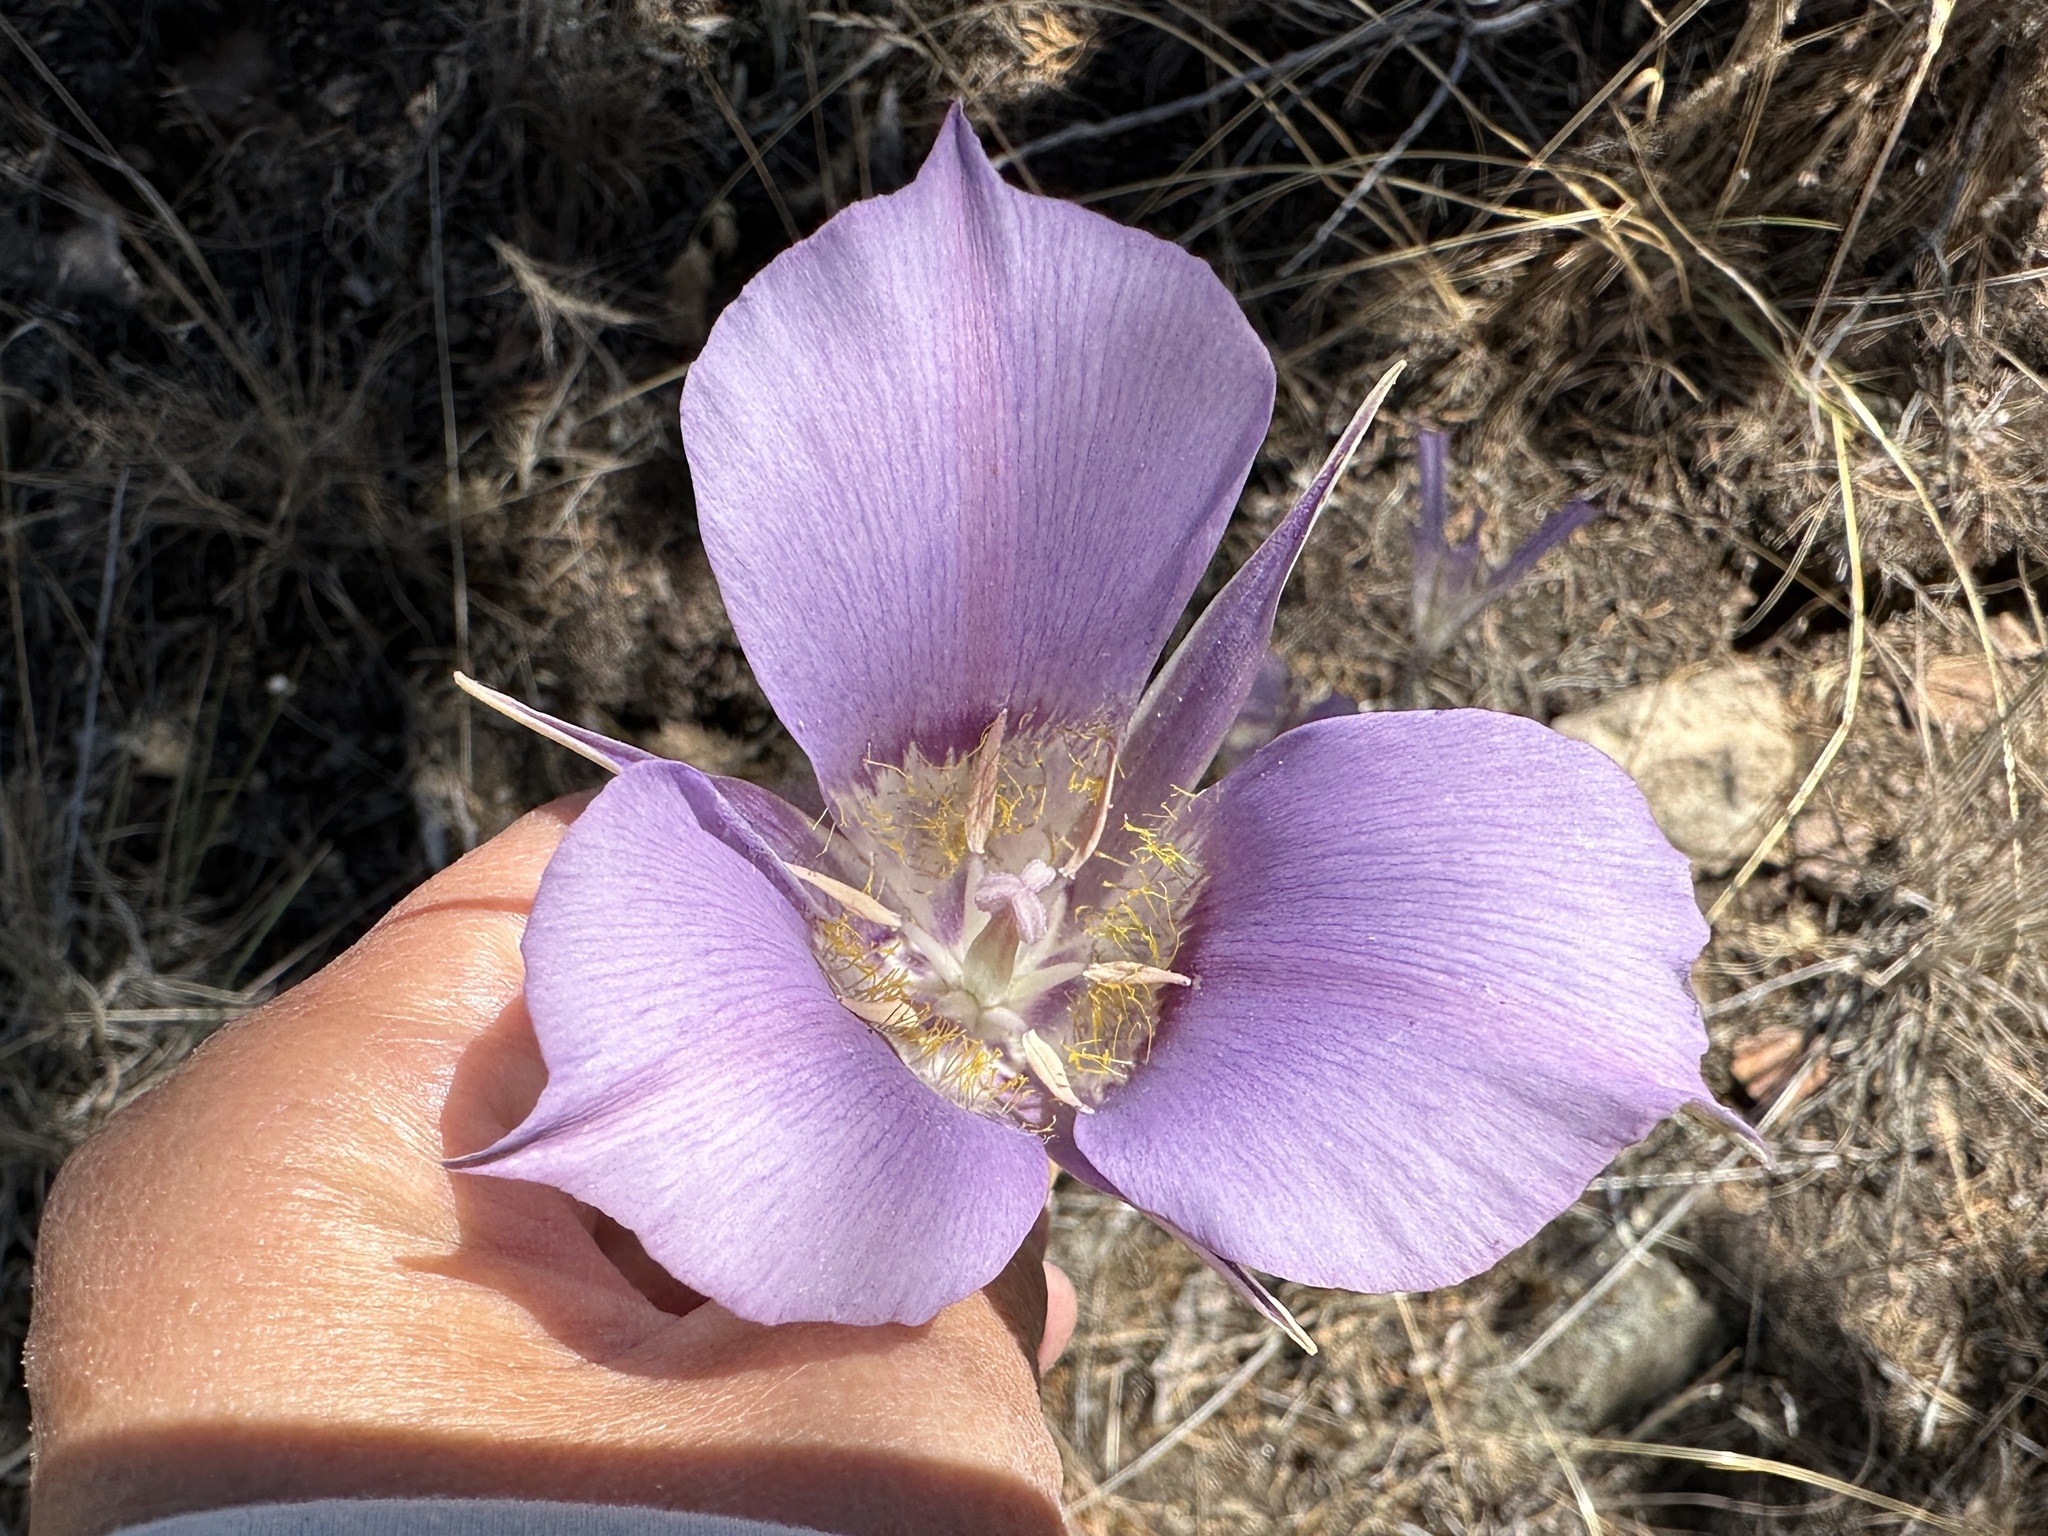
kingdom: Plantae
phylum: Tracheophyta
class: Liliopsida
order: Liliales
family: Liliaceae
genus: Calochortus
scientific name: Calochortus macrocarpus
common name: Green-band mariposa lily
